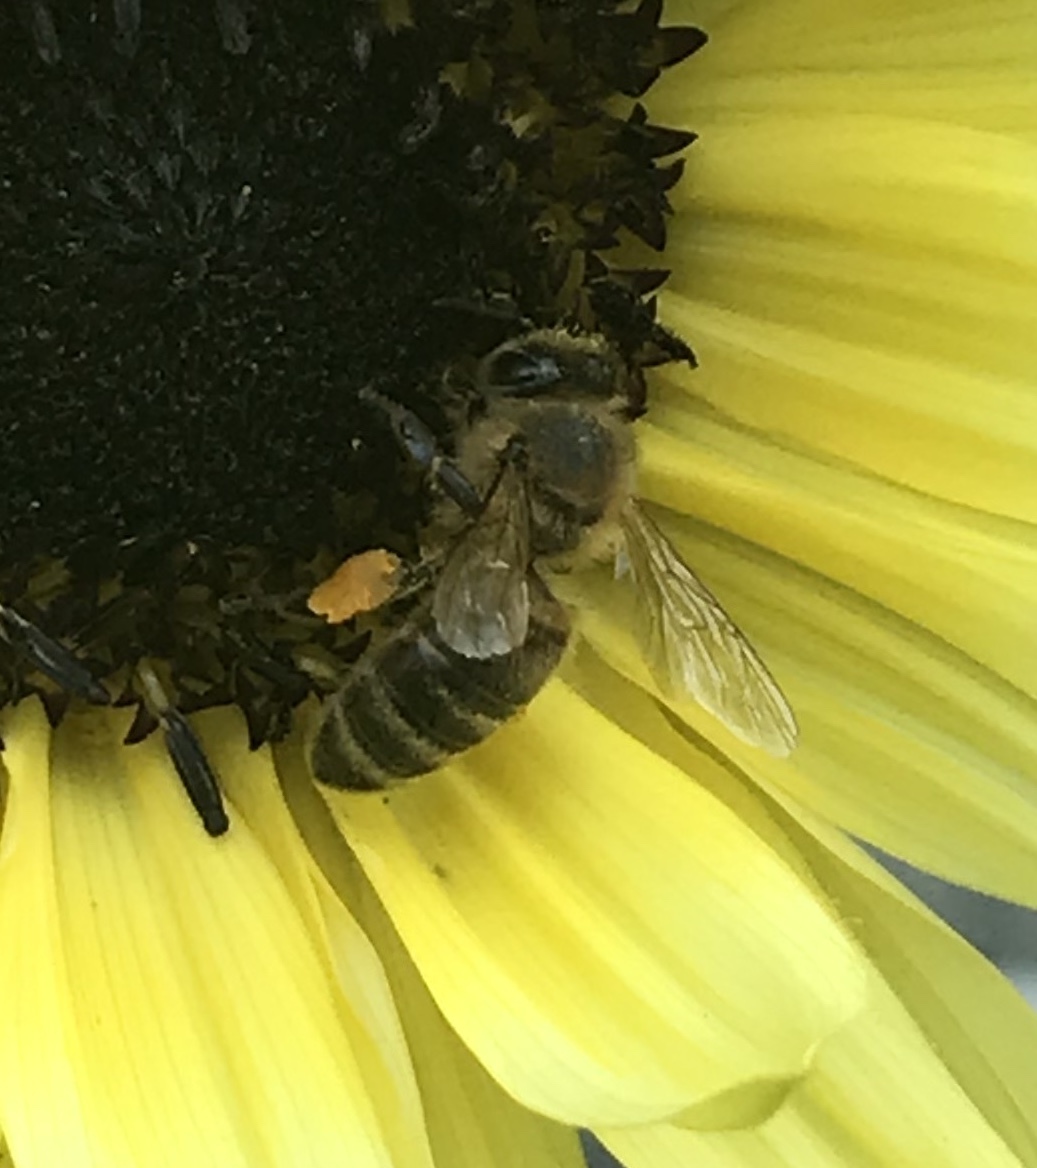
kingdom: Animalia
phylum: Arthropoda
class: Insecta
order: Hymenoptera
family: Apidae
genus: Apis
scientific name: Apis mellifera
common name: Honey bee
